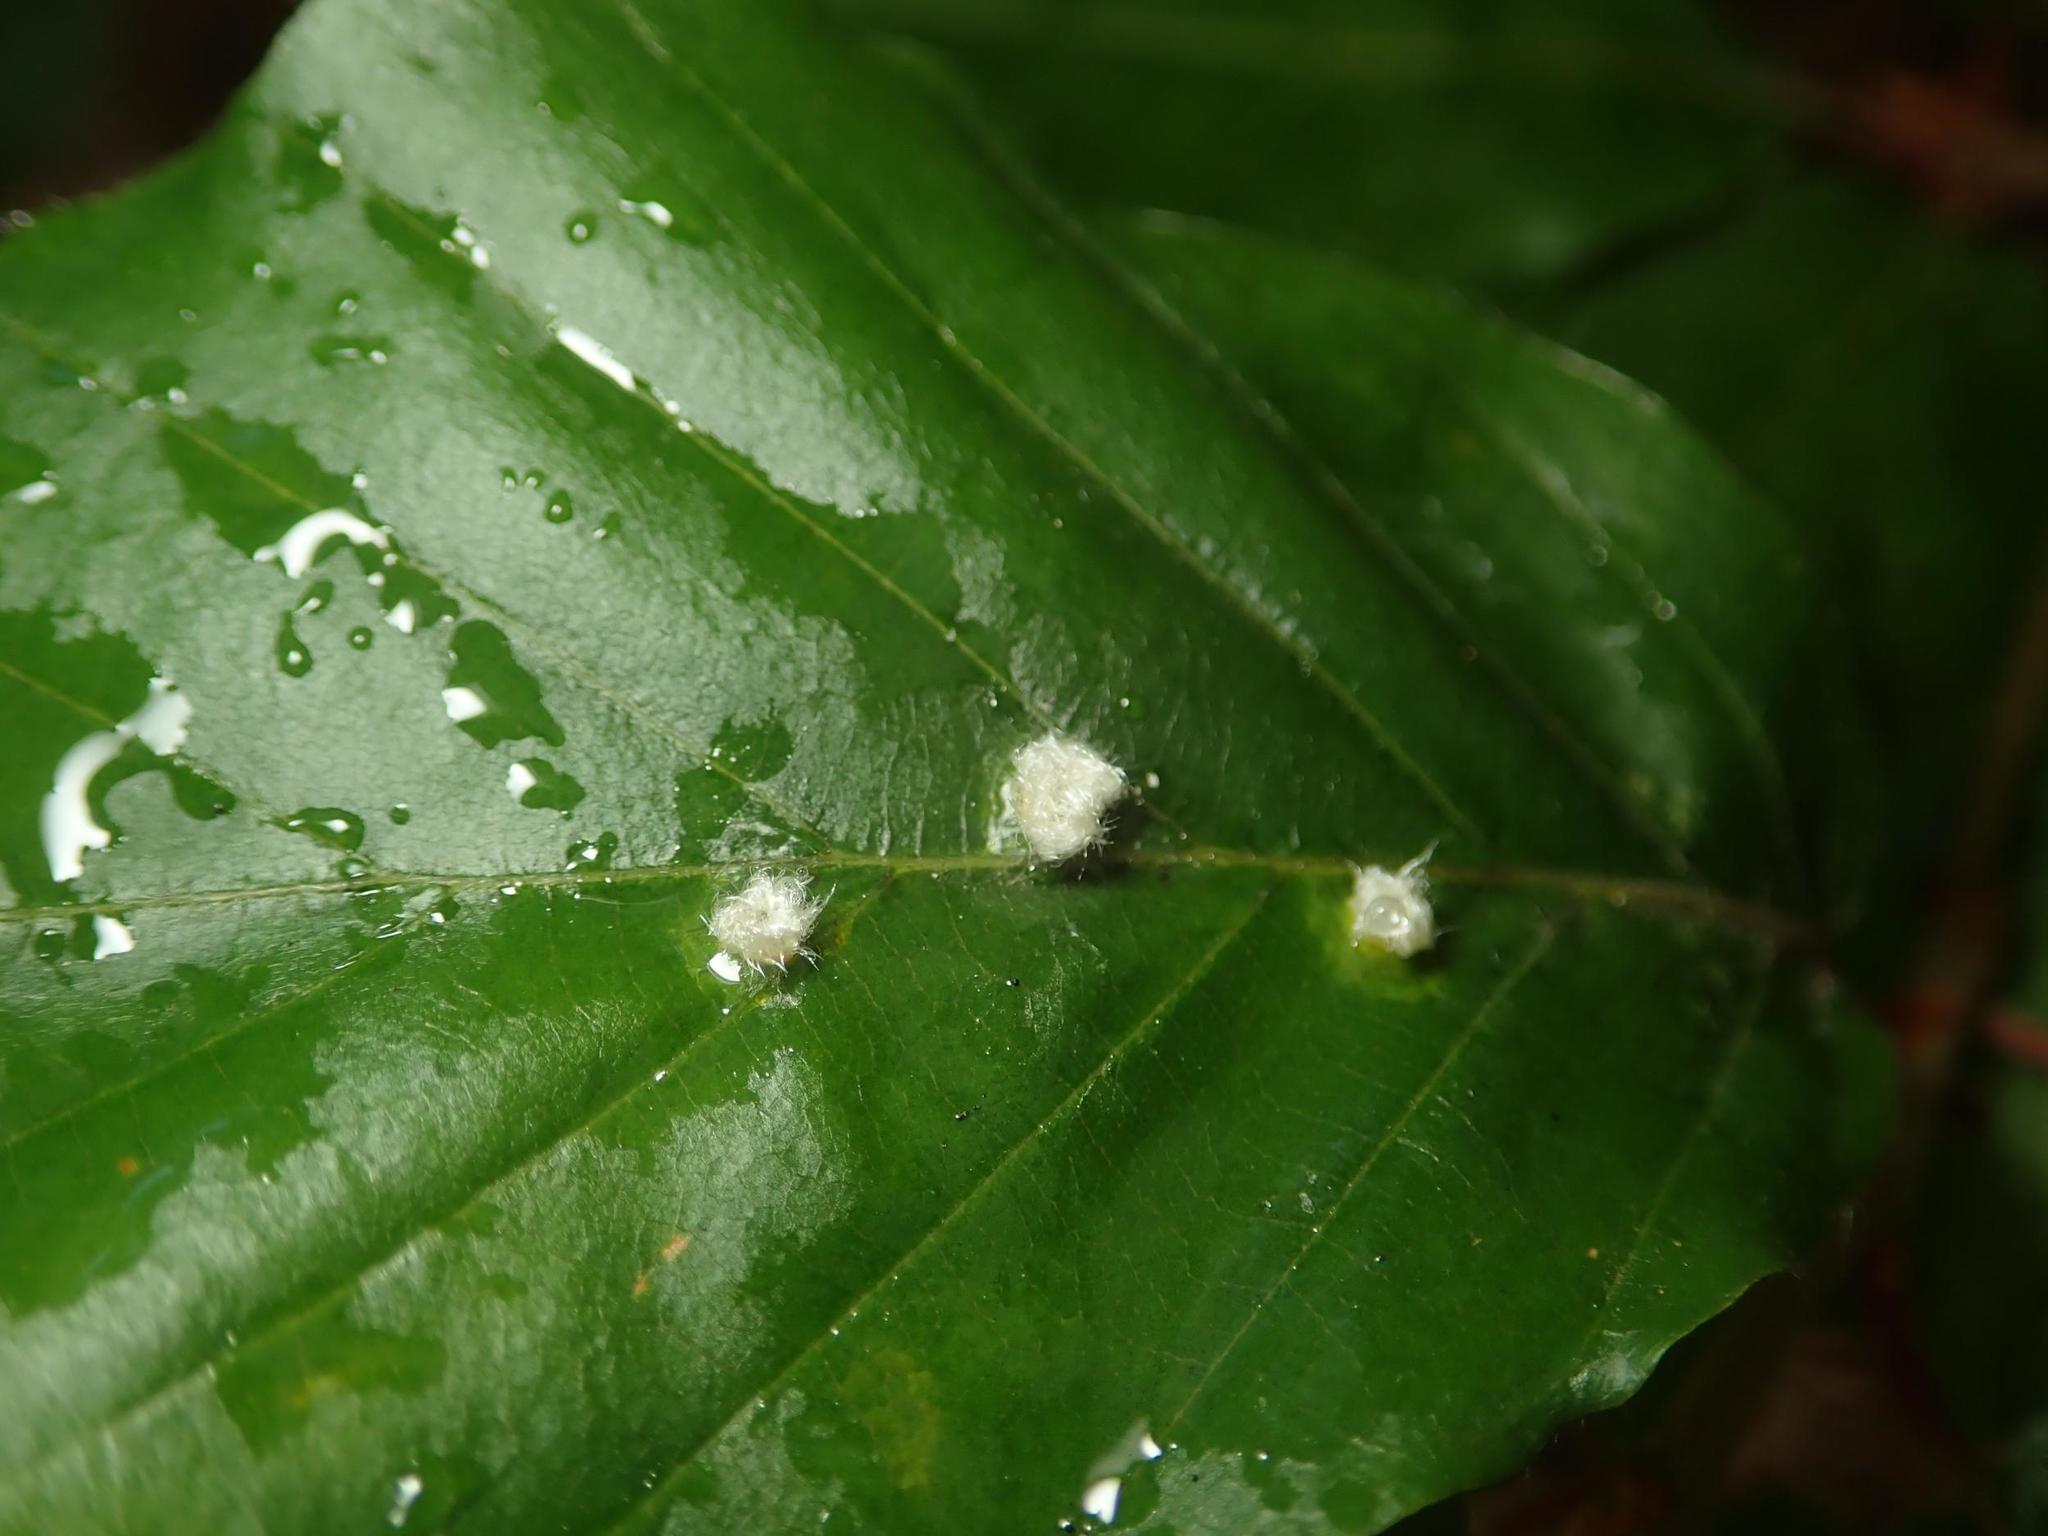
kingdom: Animalia
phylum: Arthropoda
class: Insecta
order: Diptera
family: Cecidomyiidae
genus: Hartigiola
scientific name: Hartigiola annulipes
